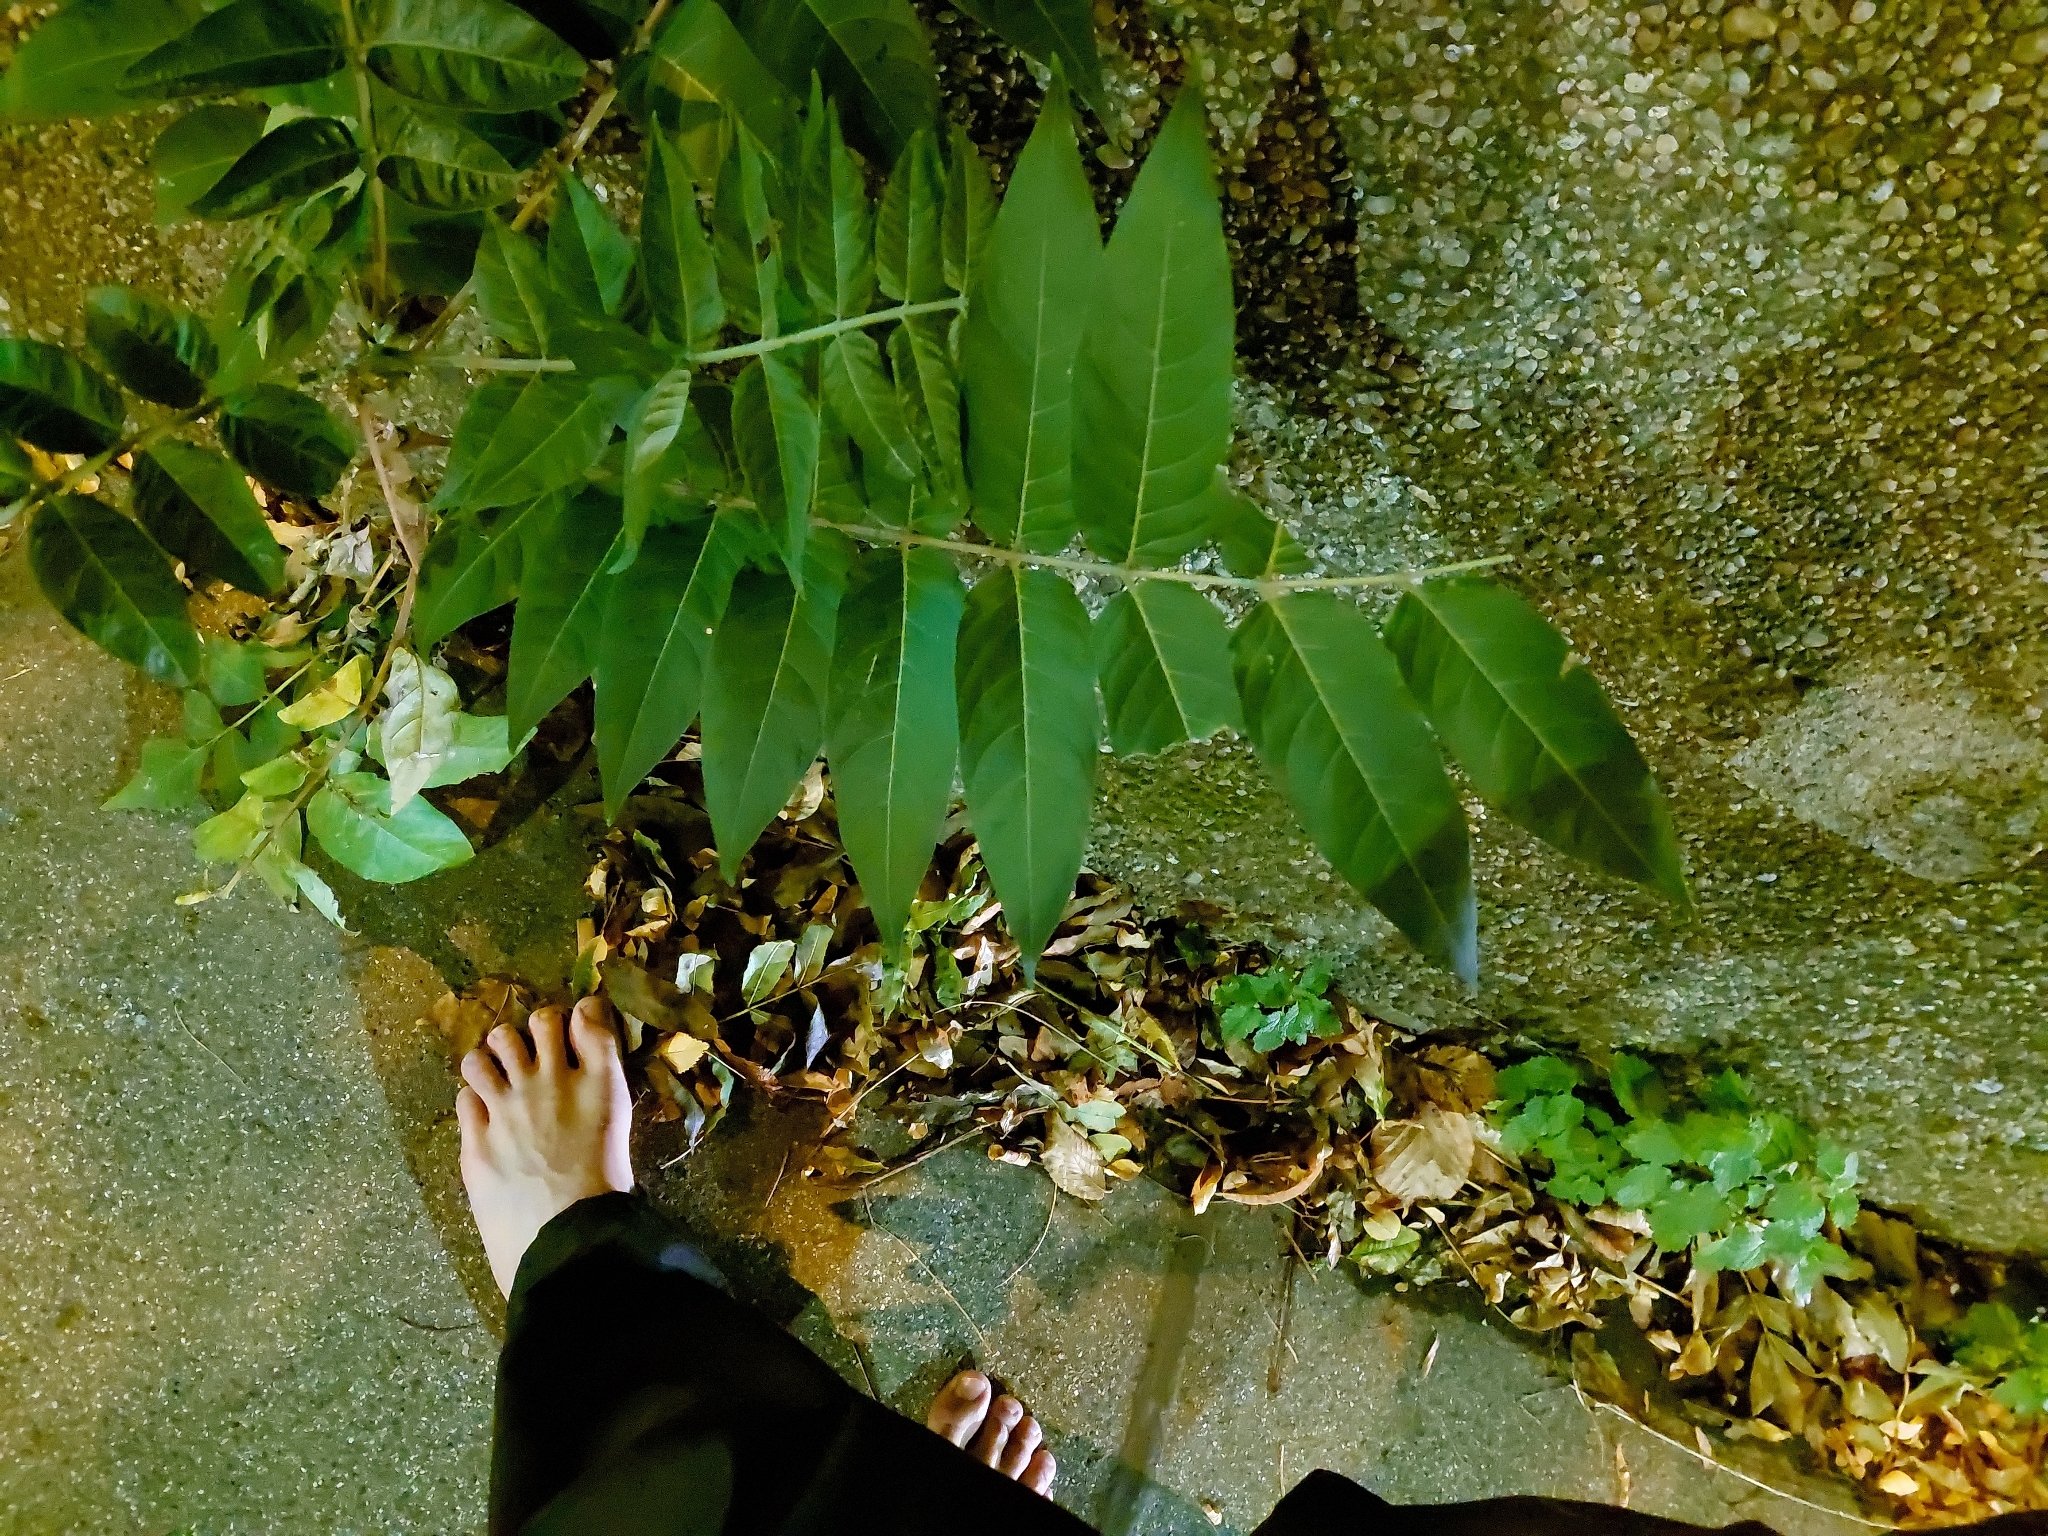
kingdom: Plantae
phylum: Tracheophyta
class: Magnoliopsida
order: Sapindales
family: Simaroubaceae
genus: Ailanthus
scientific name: Ailanthus altissima
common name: Tree-of-heaven
